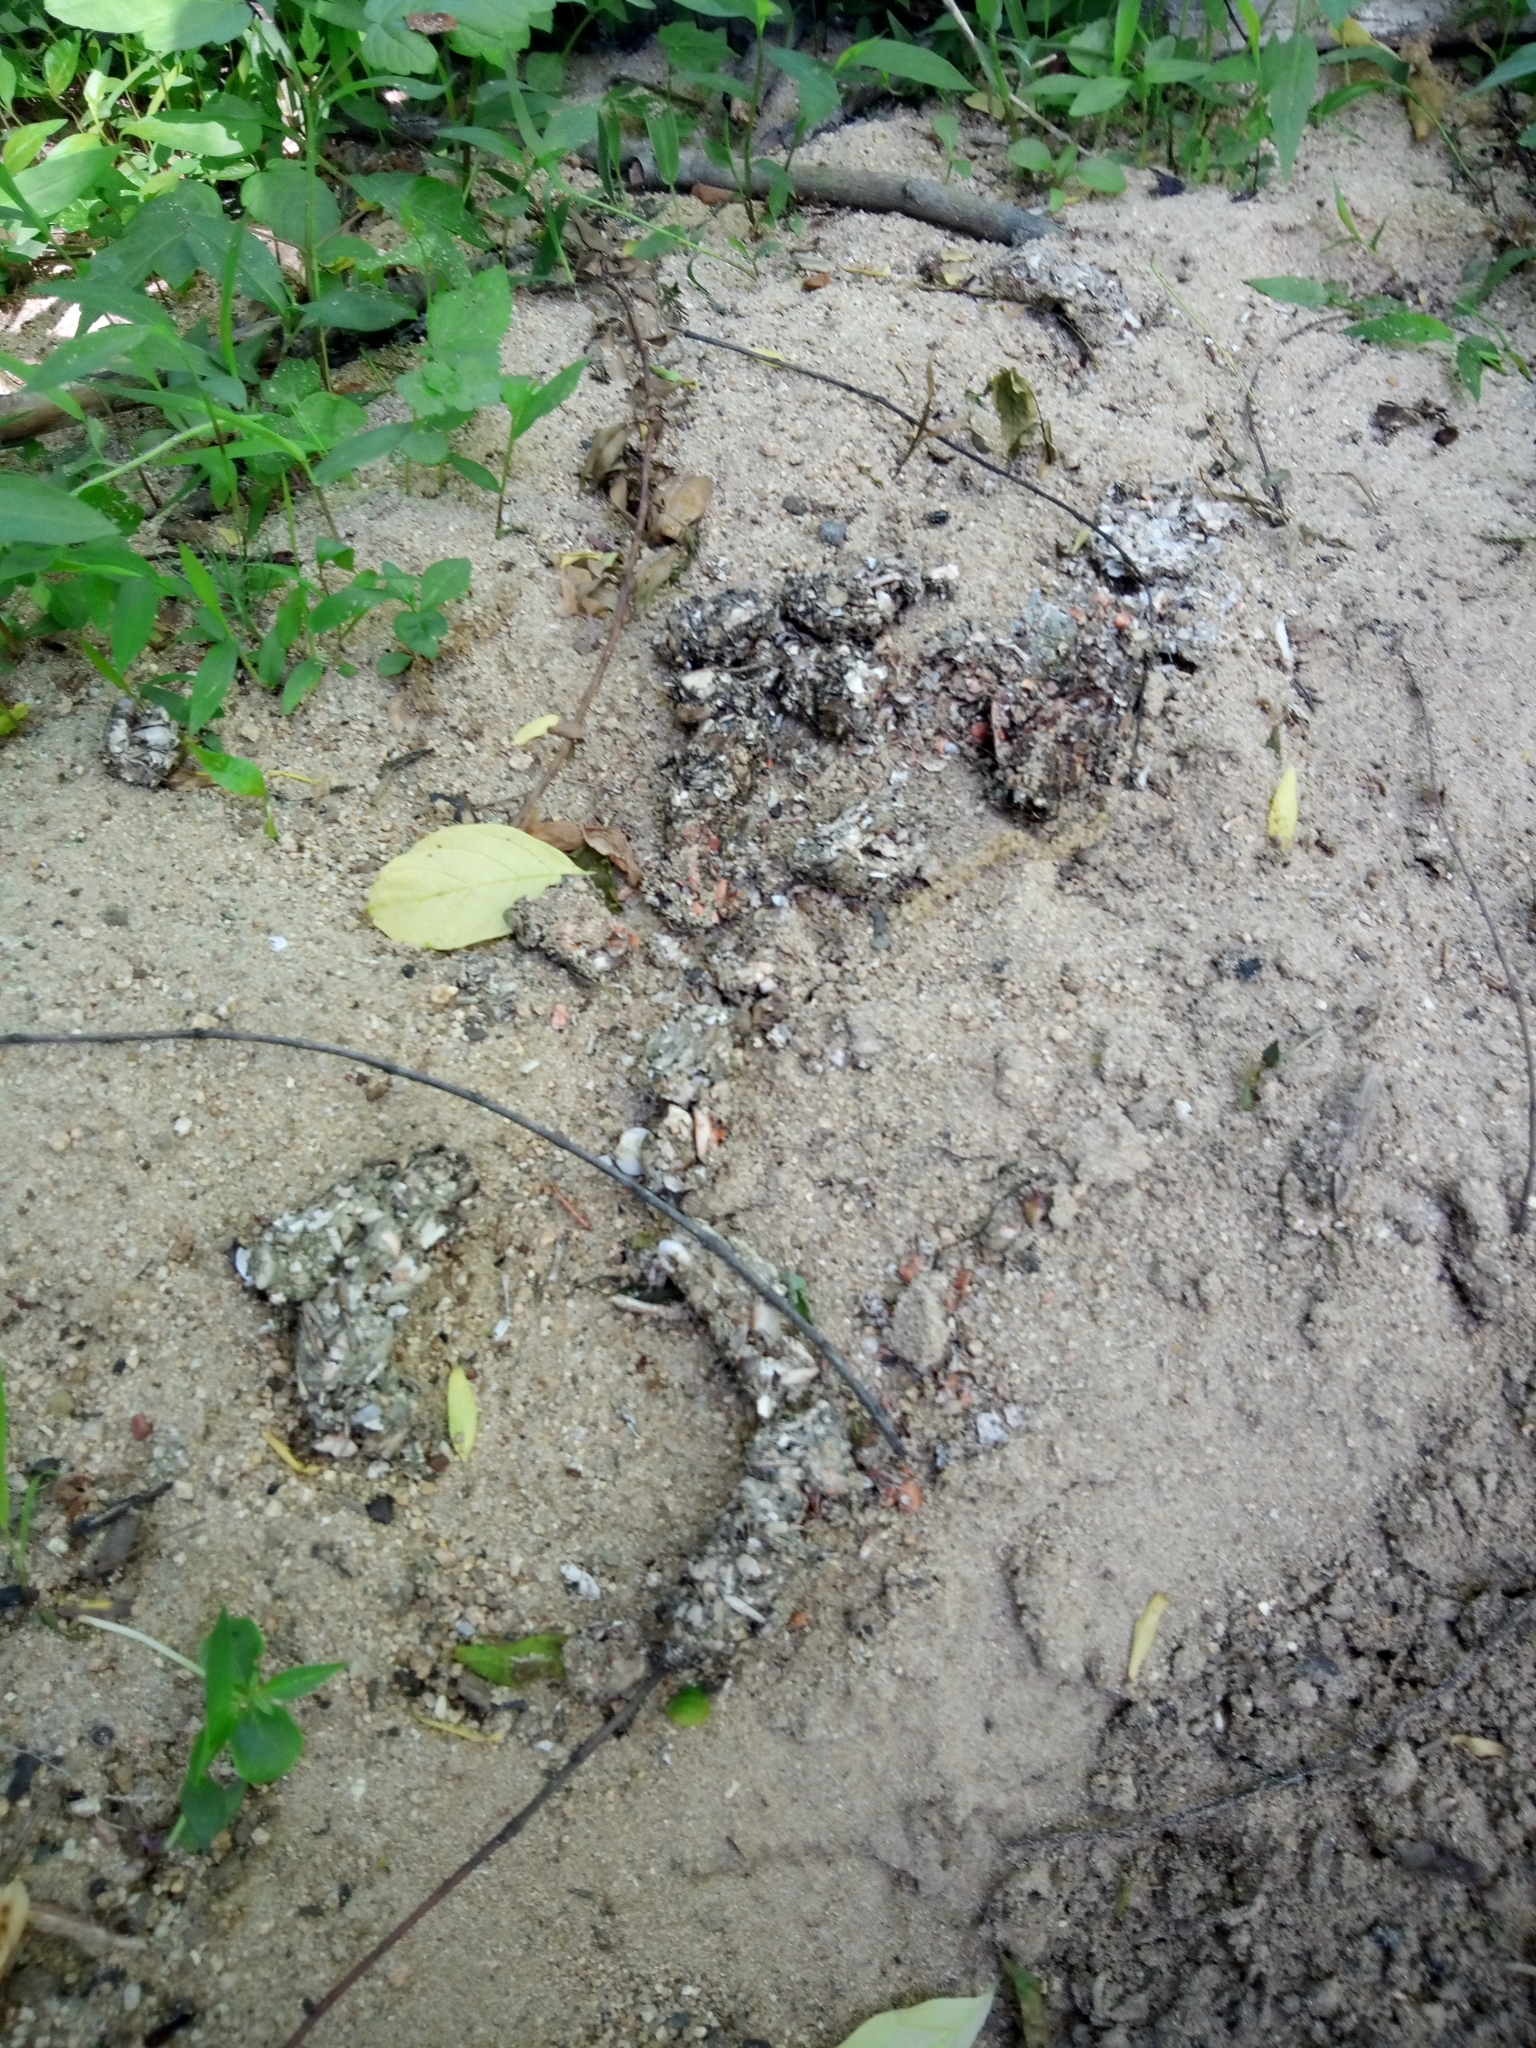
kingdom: Animalia
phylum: Chordata
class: Mammalia
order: Carnivora
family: Mustelidae
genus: Lontra
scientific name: Lontra canadensis
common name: North american river otter
